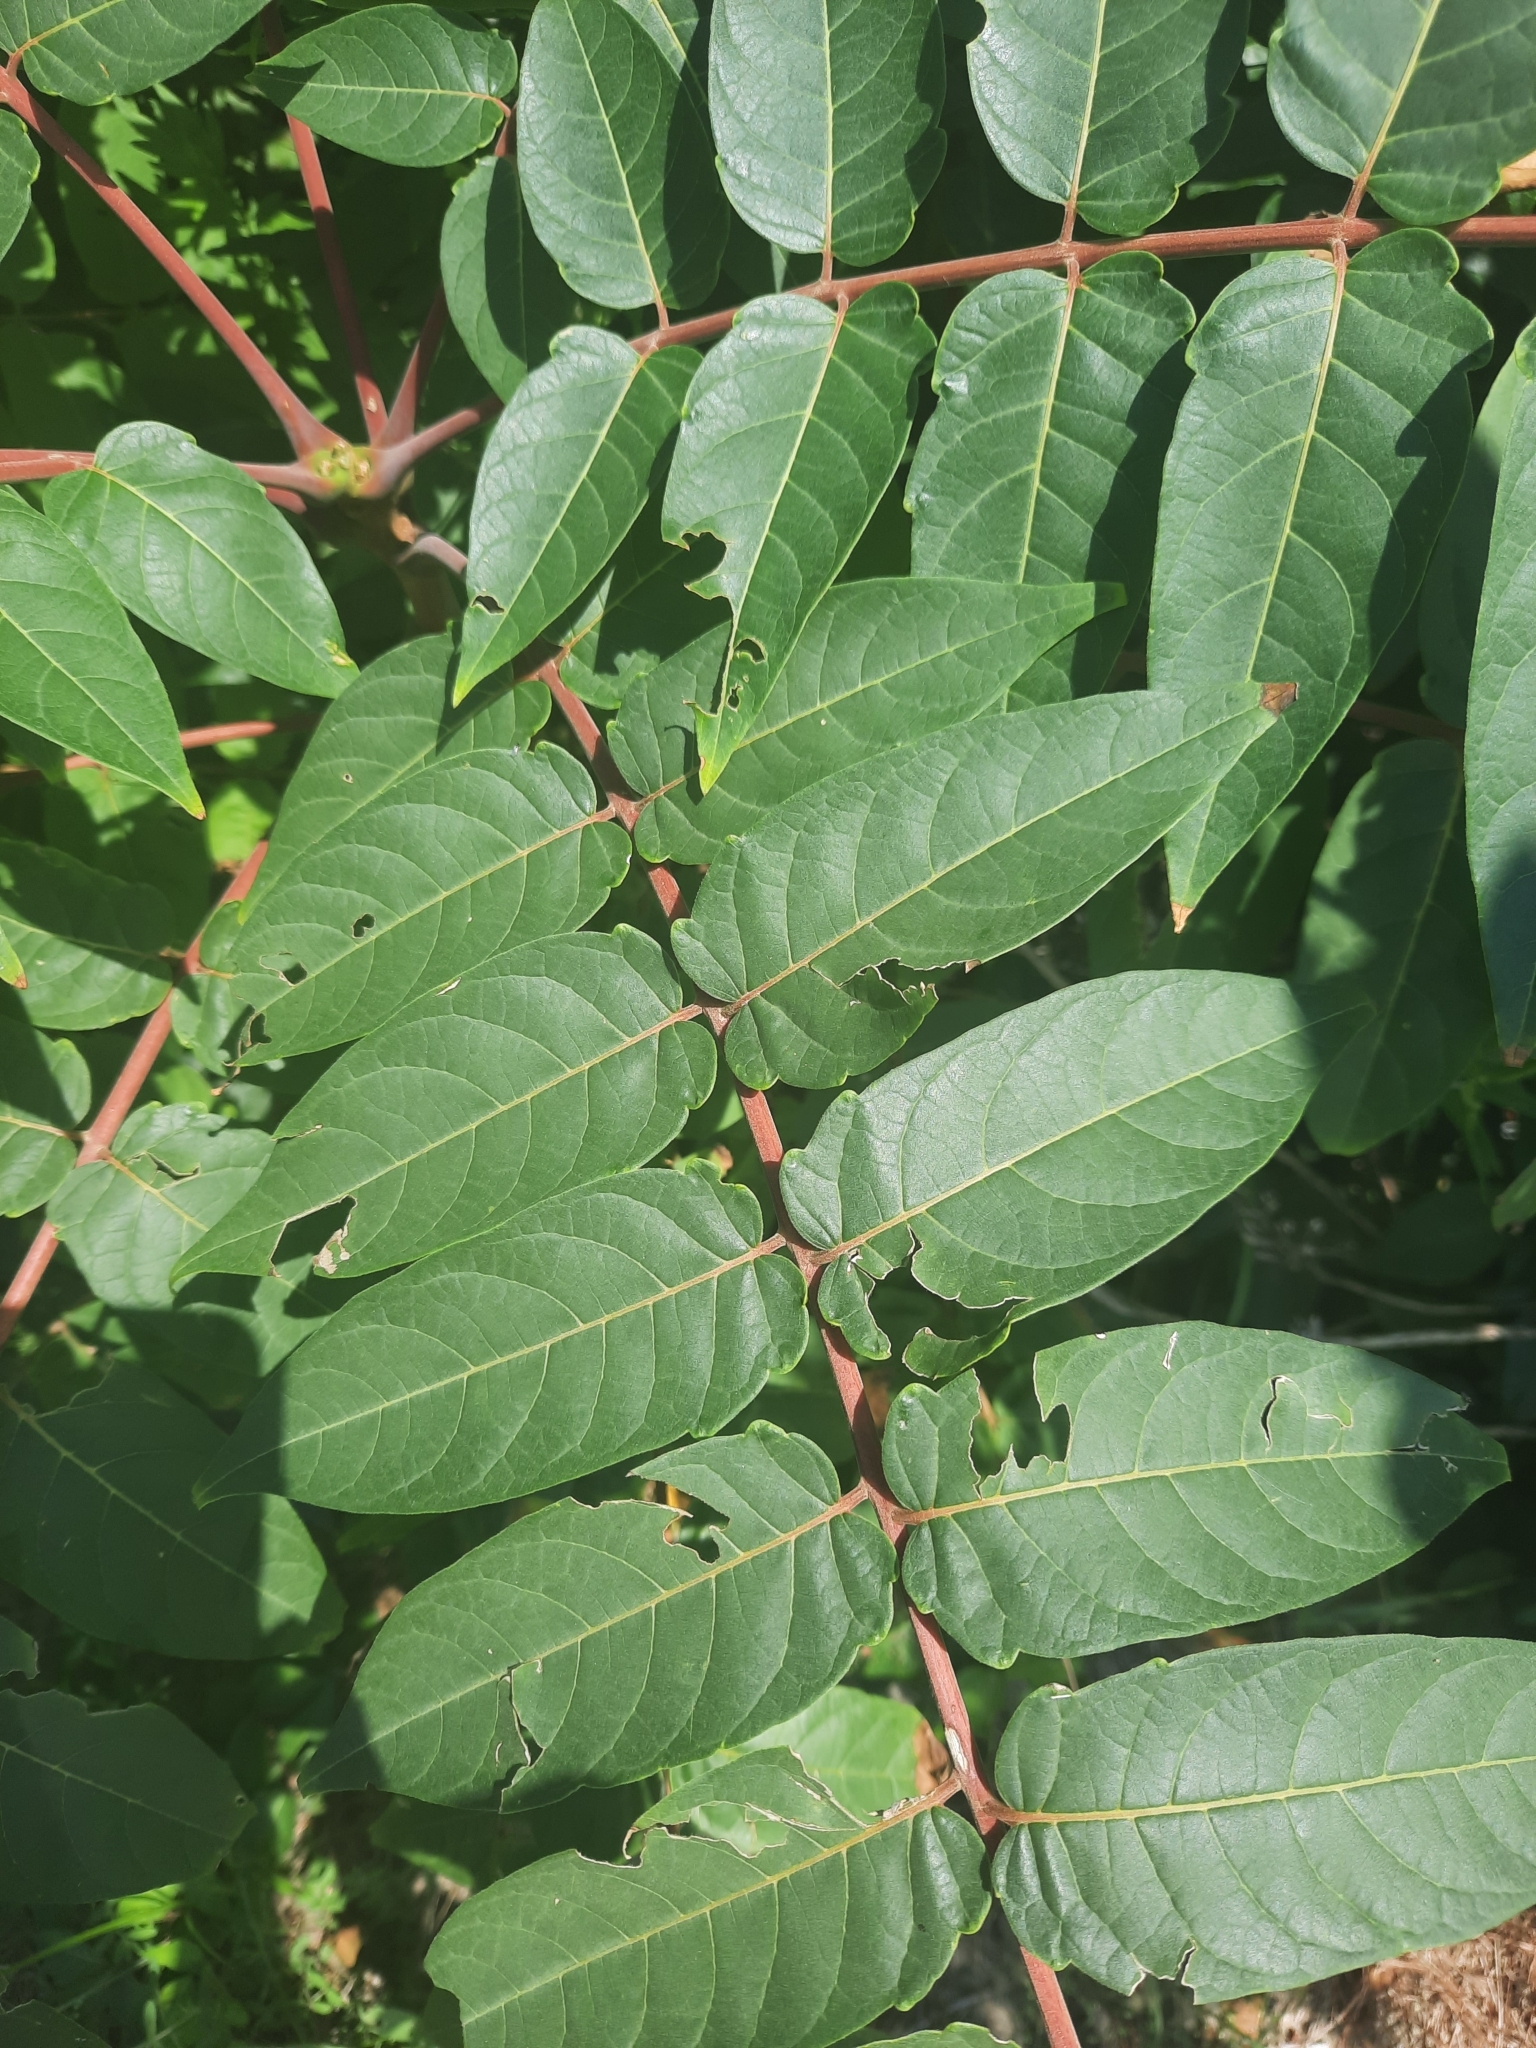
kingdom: Plantae
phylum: Tracheophyta
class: Magnoliopsida
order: Sapindales
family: Simaroubaceae
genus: Ailanthus
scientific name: Ailanthus altissima
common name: Tree-of-heaven
